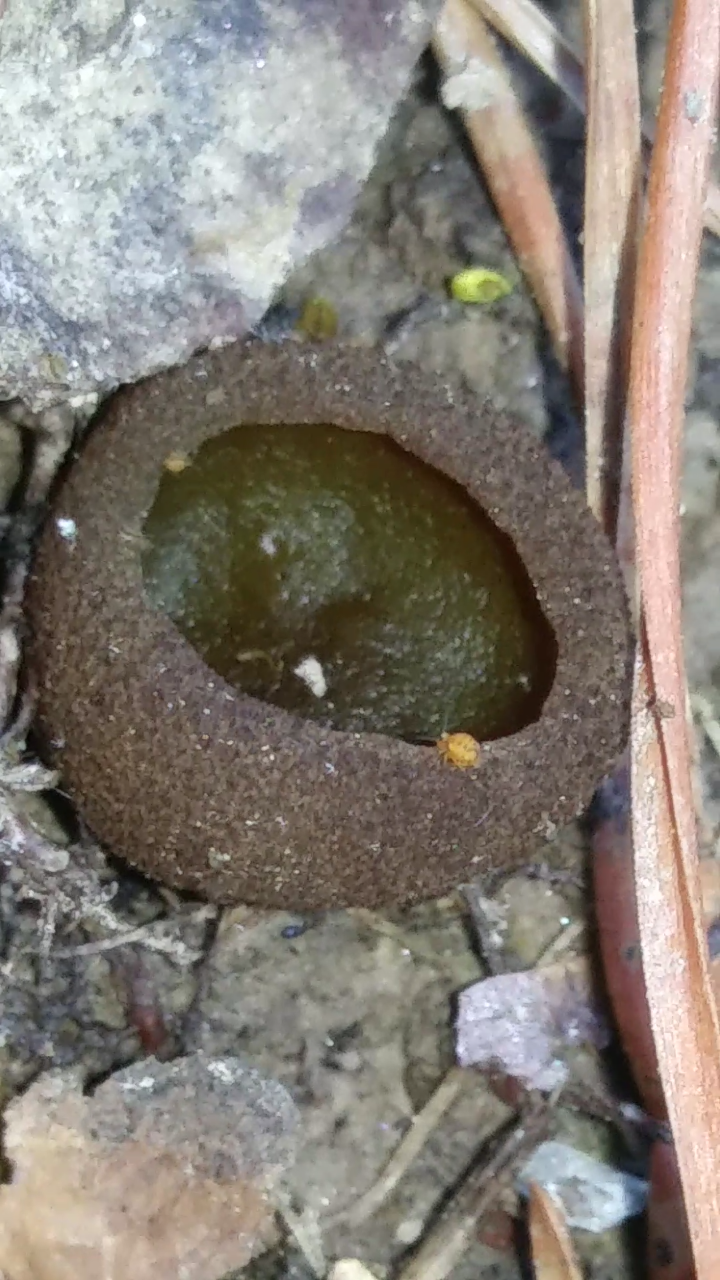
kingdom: Fungi
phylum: Ascomycota
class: Pezizomycetes
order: Pezizales
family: Pezizaceae
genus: Phylloscypha
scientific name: Phylloscypha phyllogena
